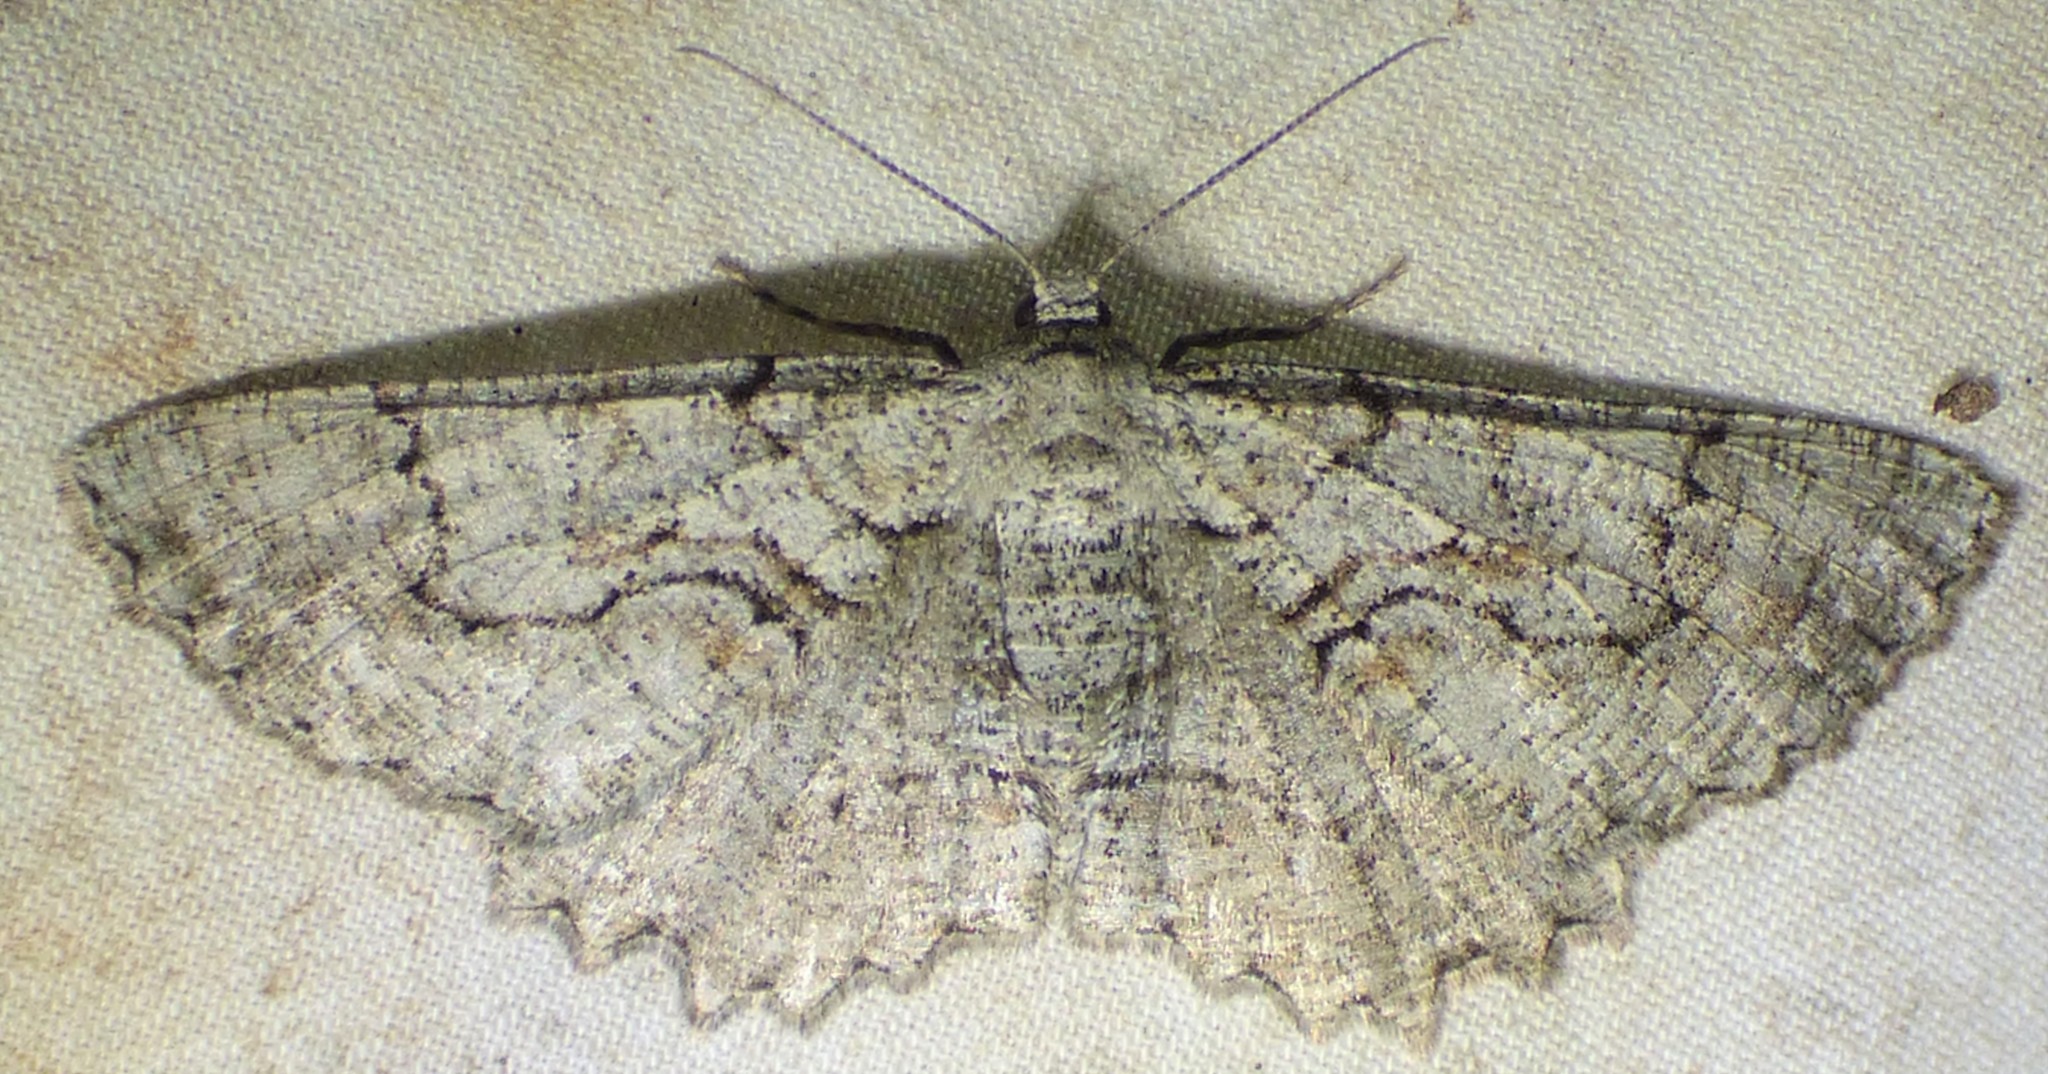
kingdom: Animalia
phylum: Arthropoda
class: Insecta
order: Lepidoptera
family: Geometridae
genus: Cymatophora
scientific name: Cymatophora approximaria
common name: Giant gray moth
